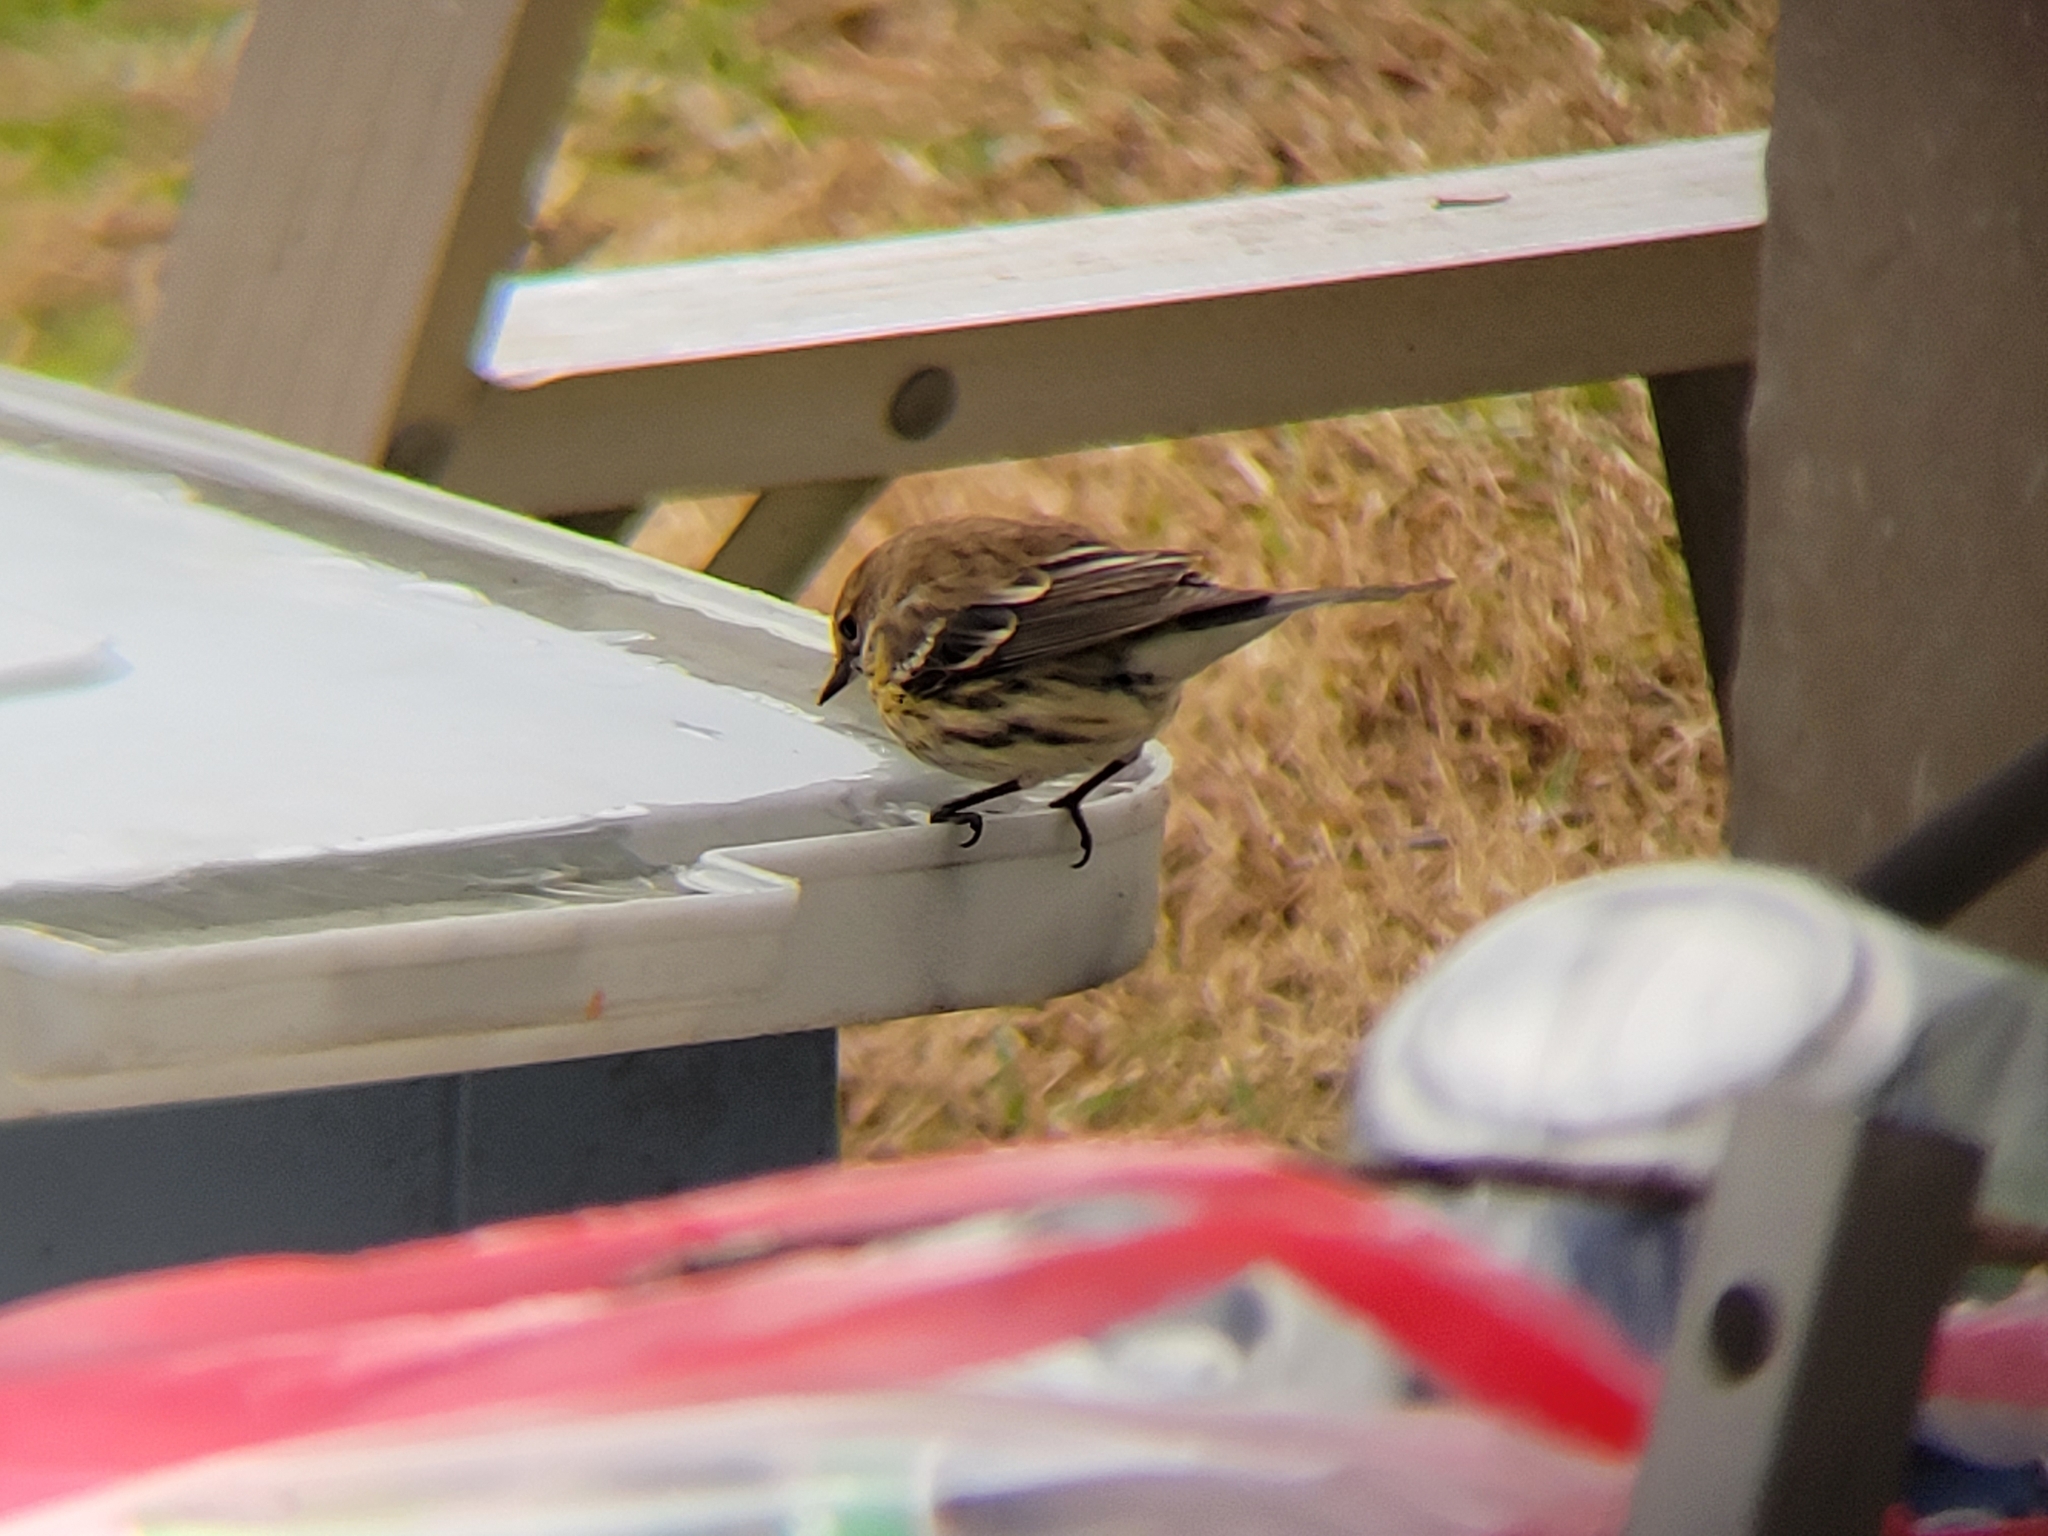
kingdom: Animalia
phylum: Chordata
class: Aves
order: Passeriformes
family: Parulidae
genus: Setophaga
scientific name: Setophaga coronata
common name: Myrtle warbler
